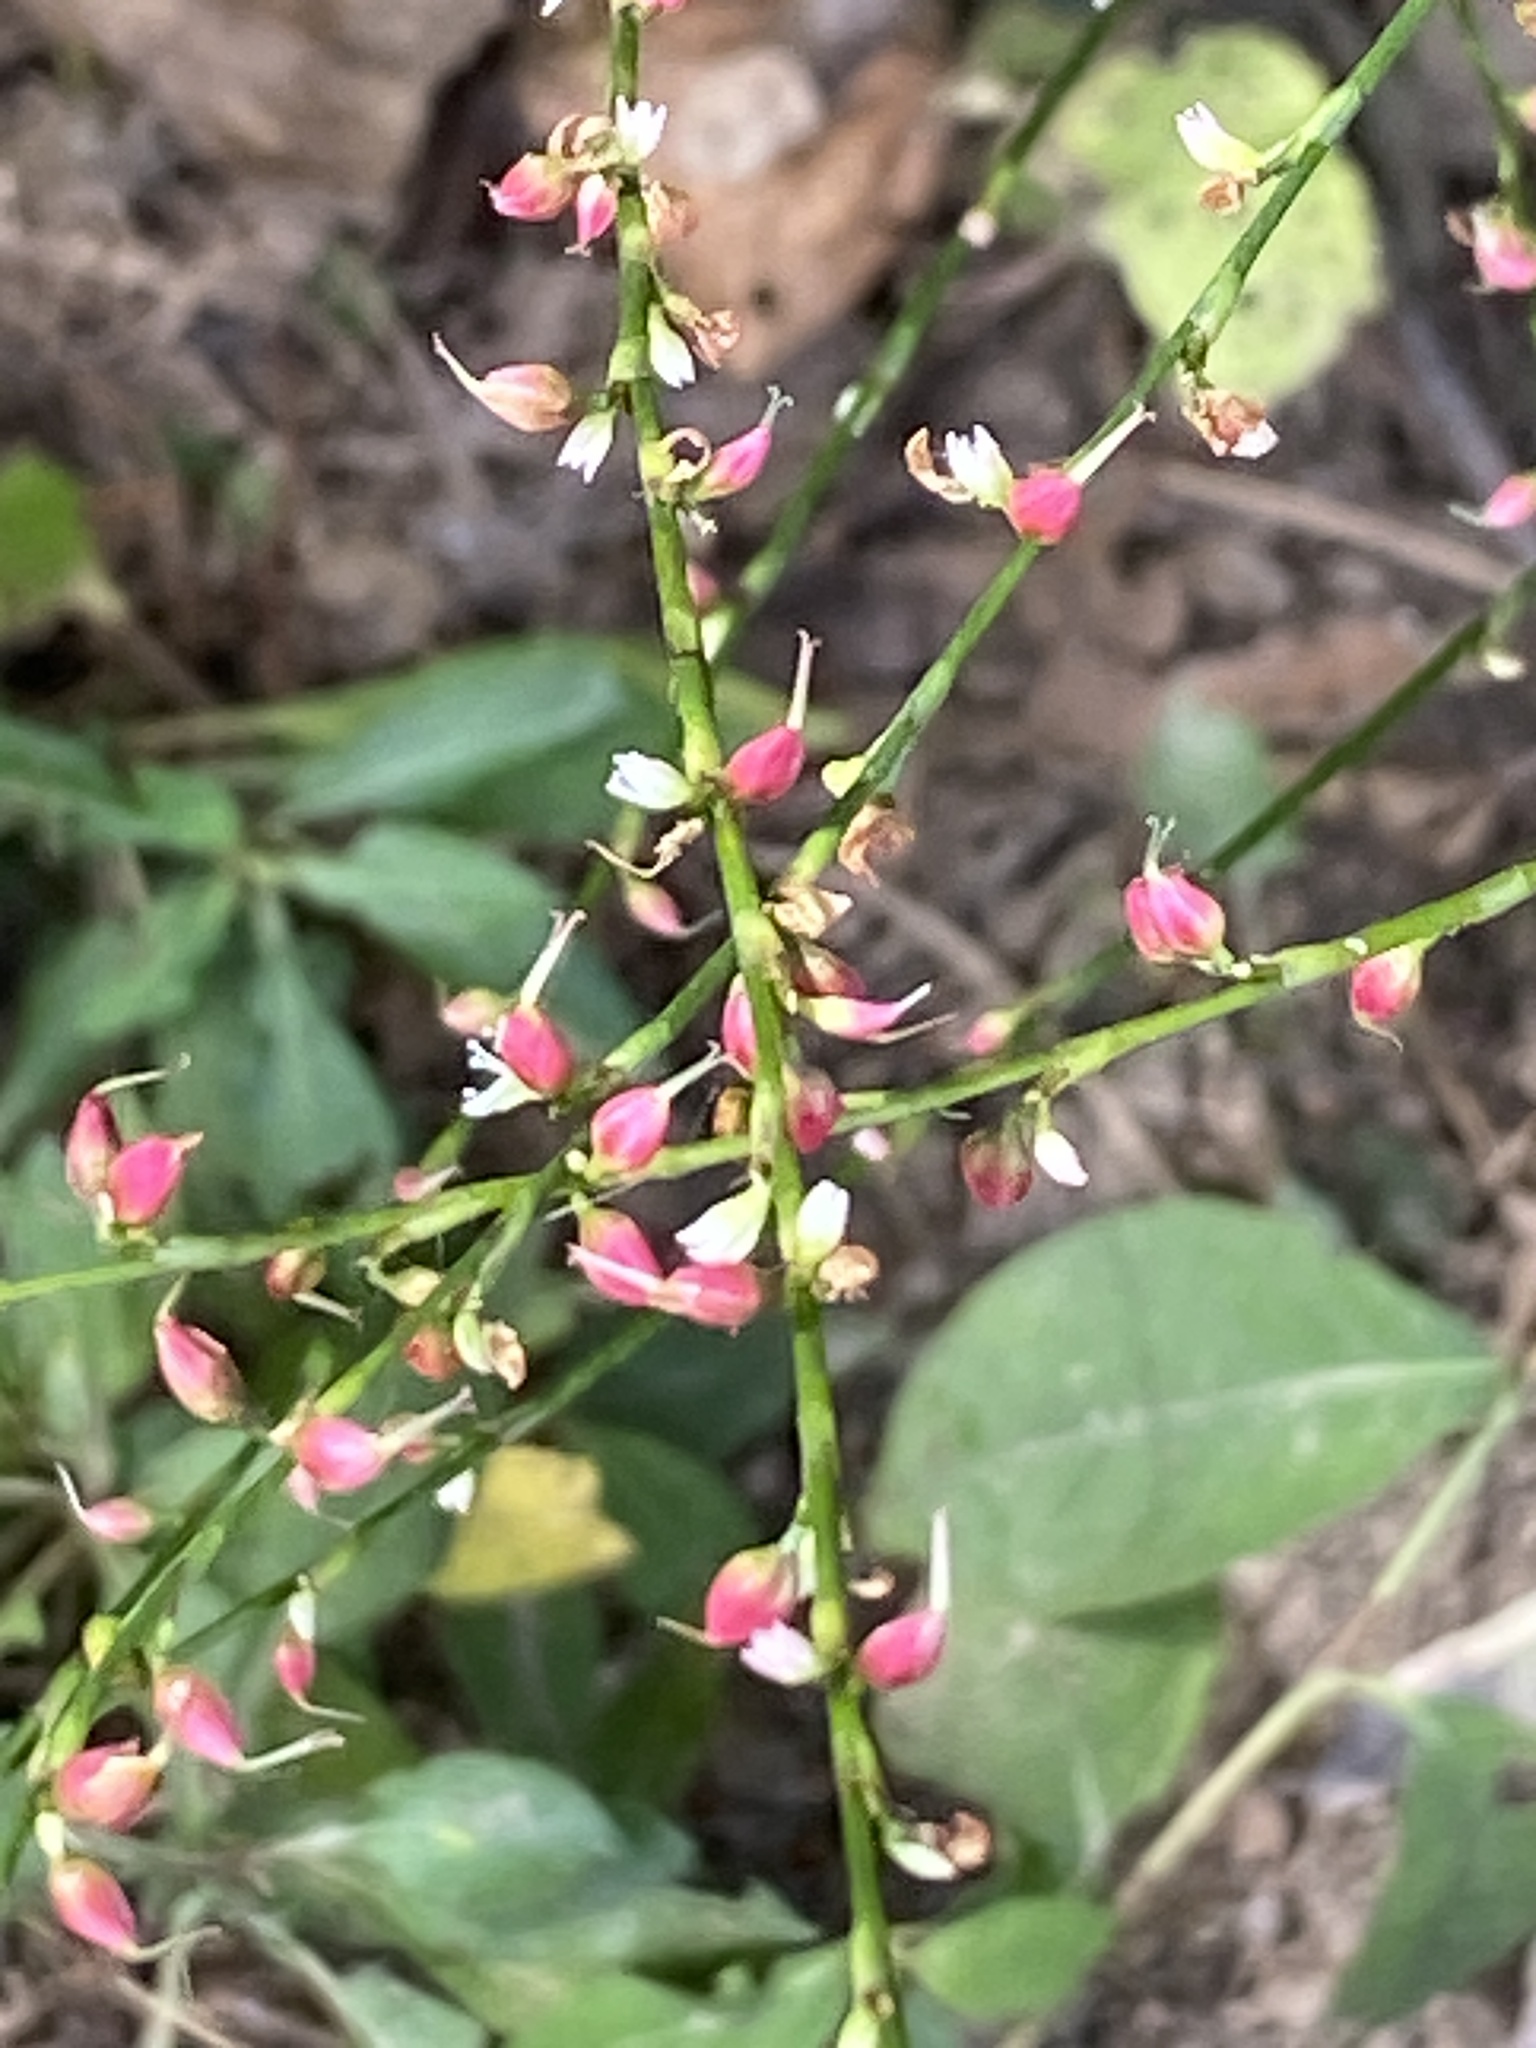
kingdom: Plantae
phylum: Tracheophyta
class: Magnoliopsida
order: Caryophyllales
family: Polygonaceae
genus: Persicaria
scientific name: Persicaria virginiana
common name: Jumpseed
